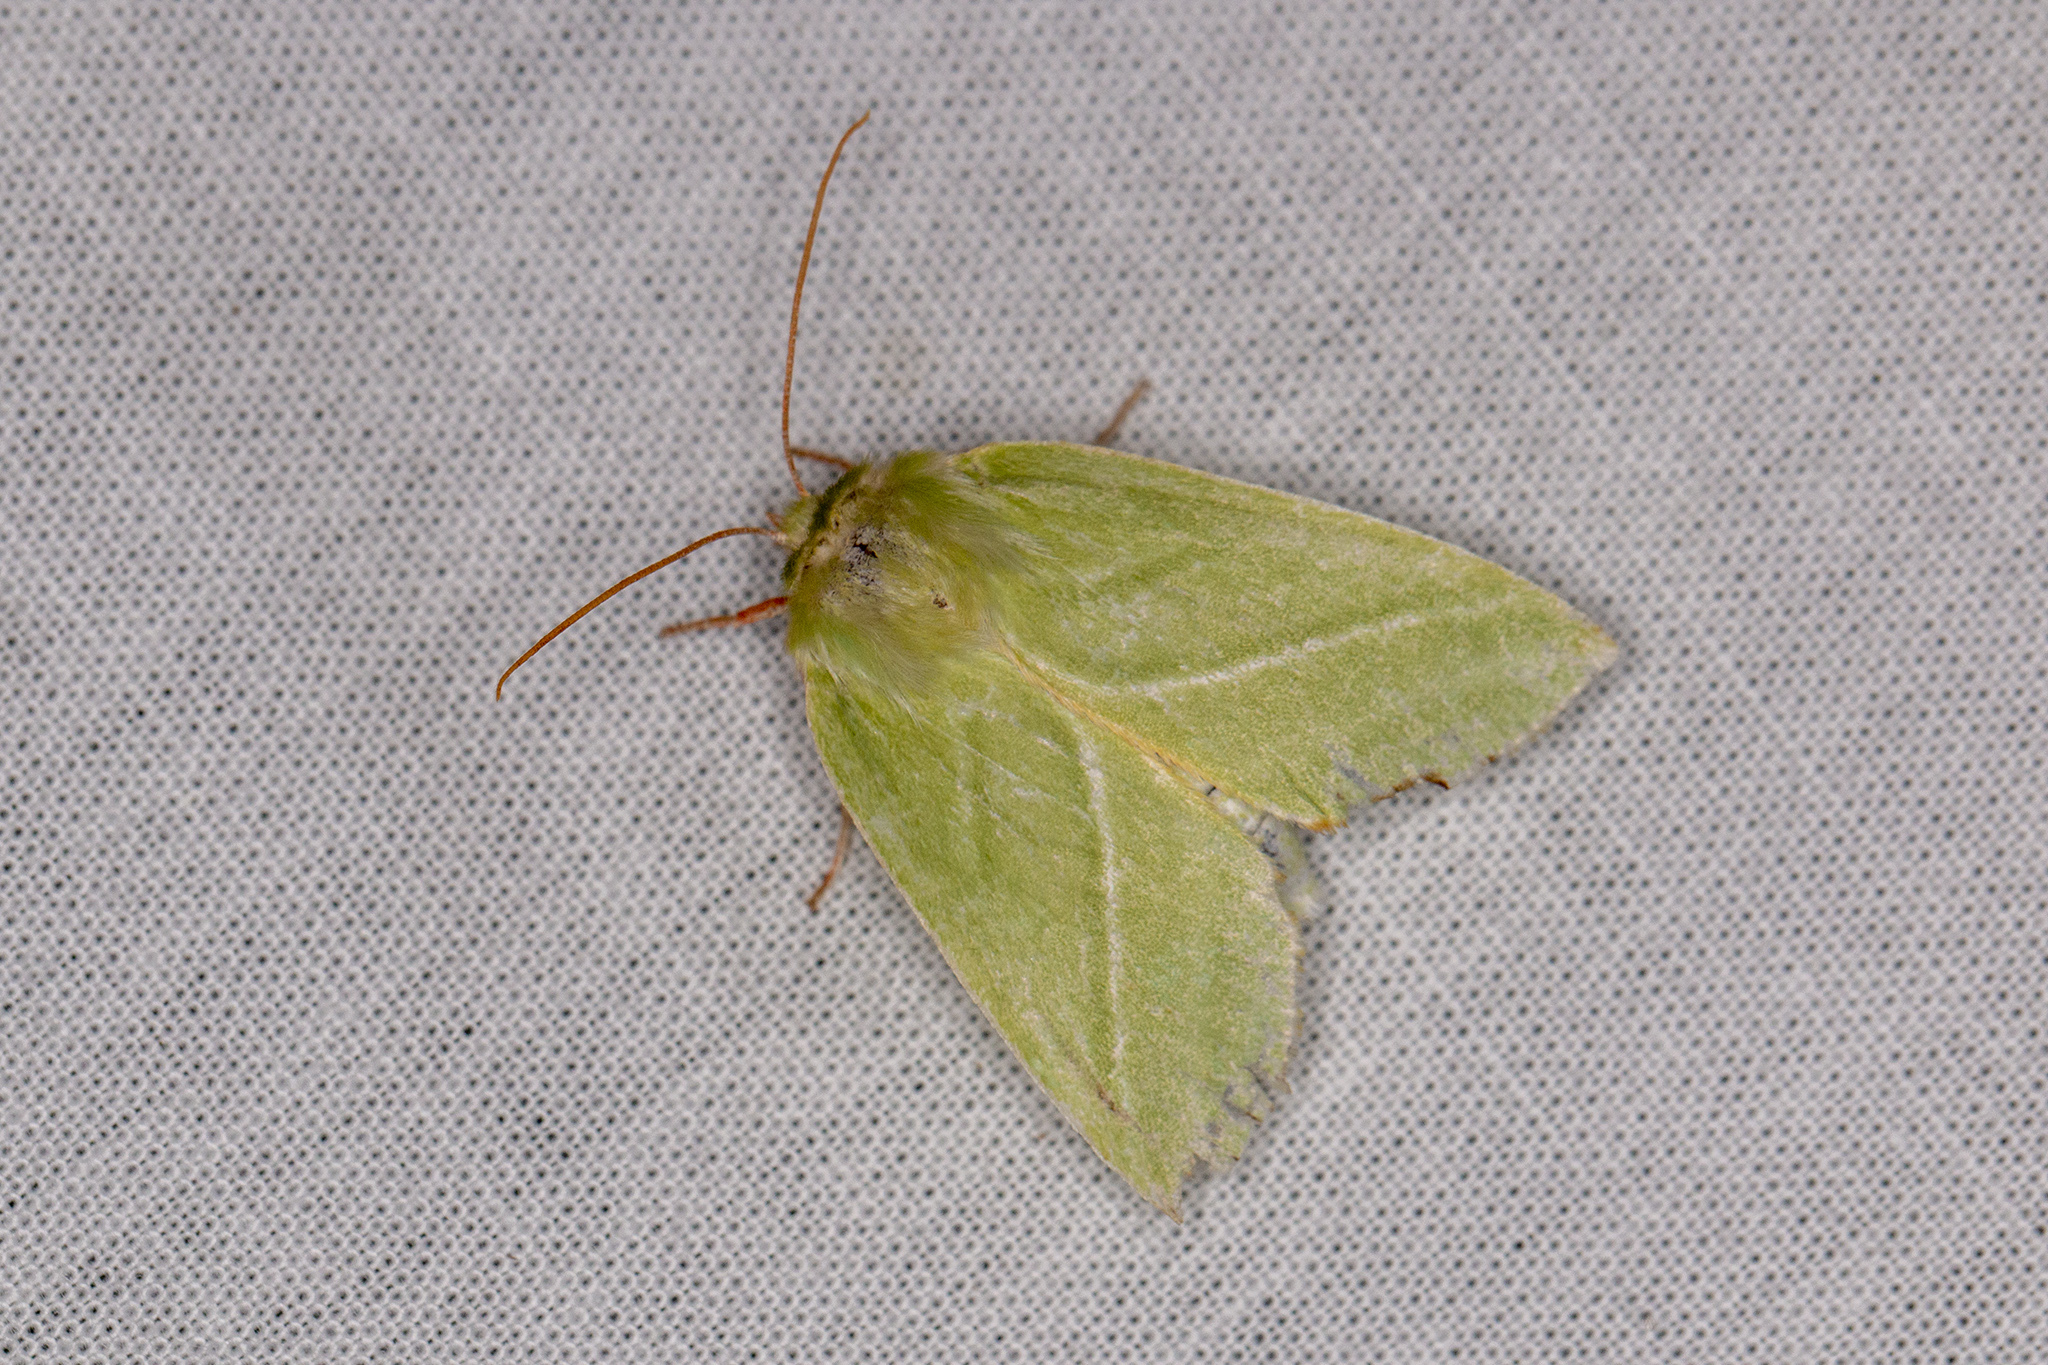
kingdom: Animalia
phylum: Arthropoda
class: Insecta
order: Lepidoptera
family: Nolidae
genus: Pseudoips
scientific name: Pseudoips prasinana
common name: Green silver-lines
